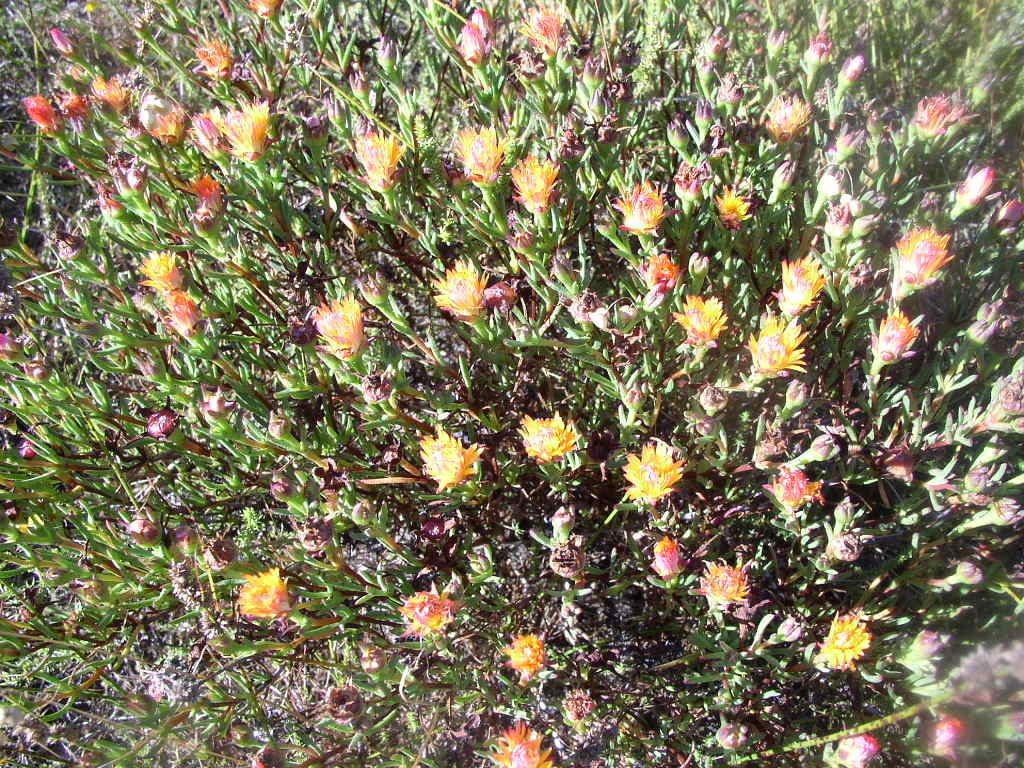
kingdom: Plantae
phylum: Tracheophyta
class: Magnoliopsida
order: Caryophyllales
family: Aizoaceae
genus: Lampranthus
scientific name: Lampranthus bicolor
